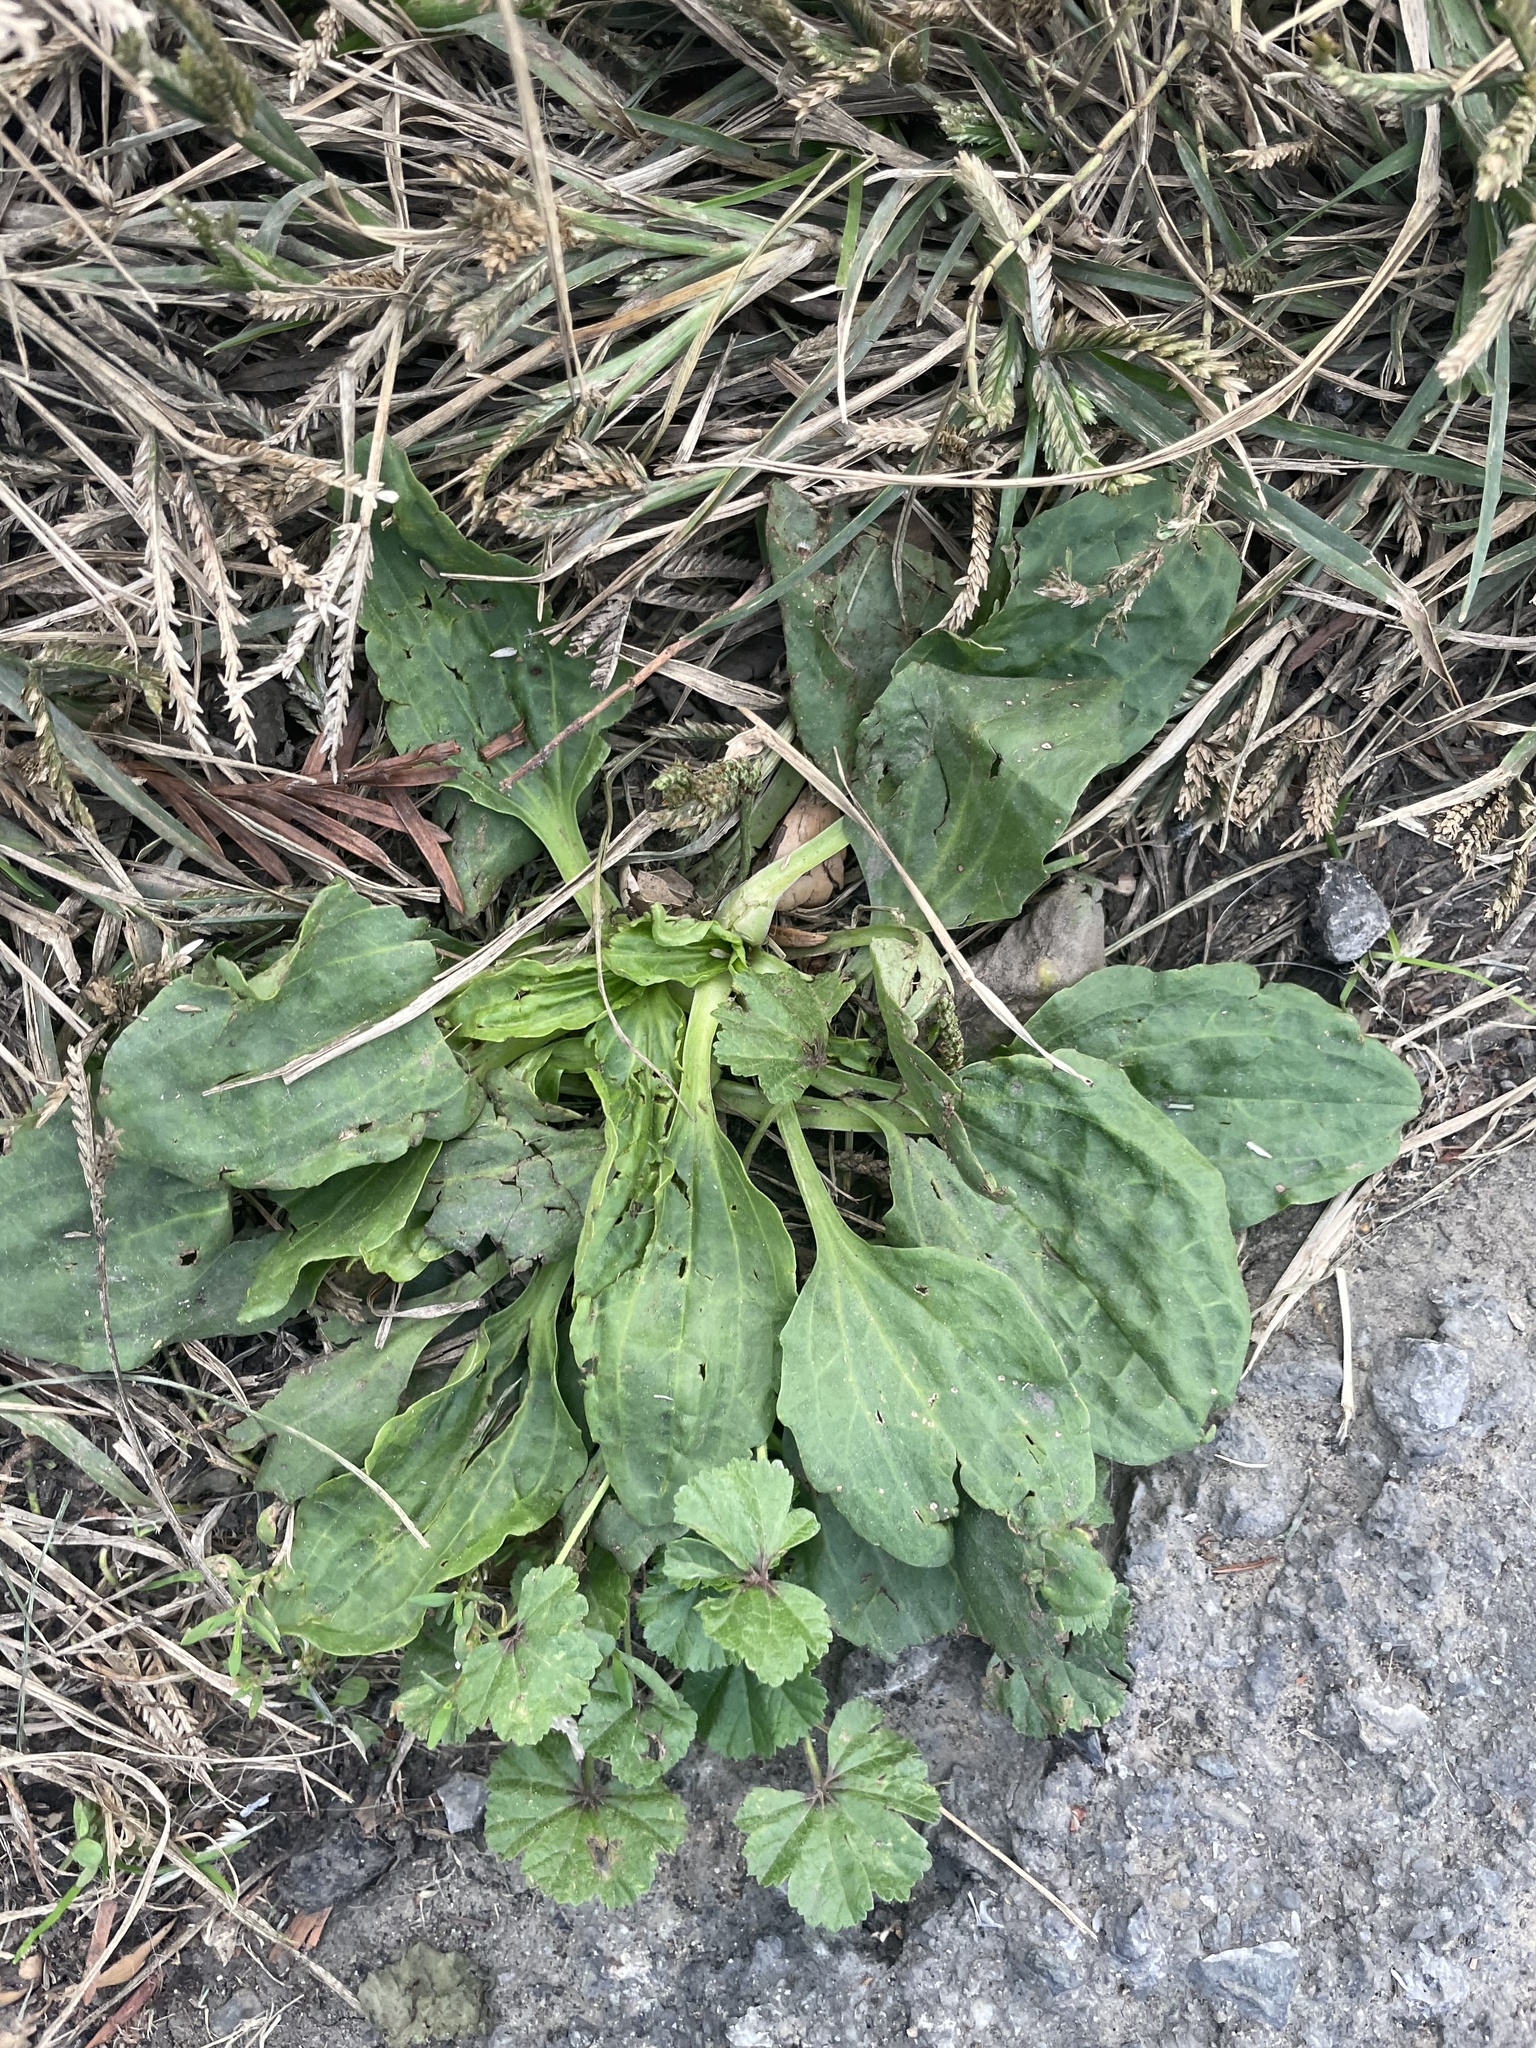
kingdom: Plantae
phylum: Tracheophyta
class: Magnoliopsida
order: Lamiales
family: Plantaginaceae
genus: Plantago
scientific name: Plantago major
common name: Common plantain
